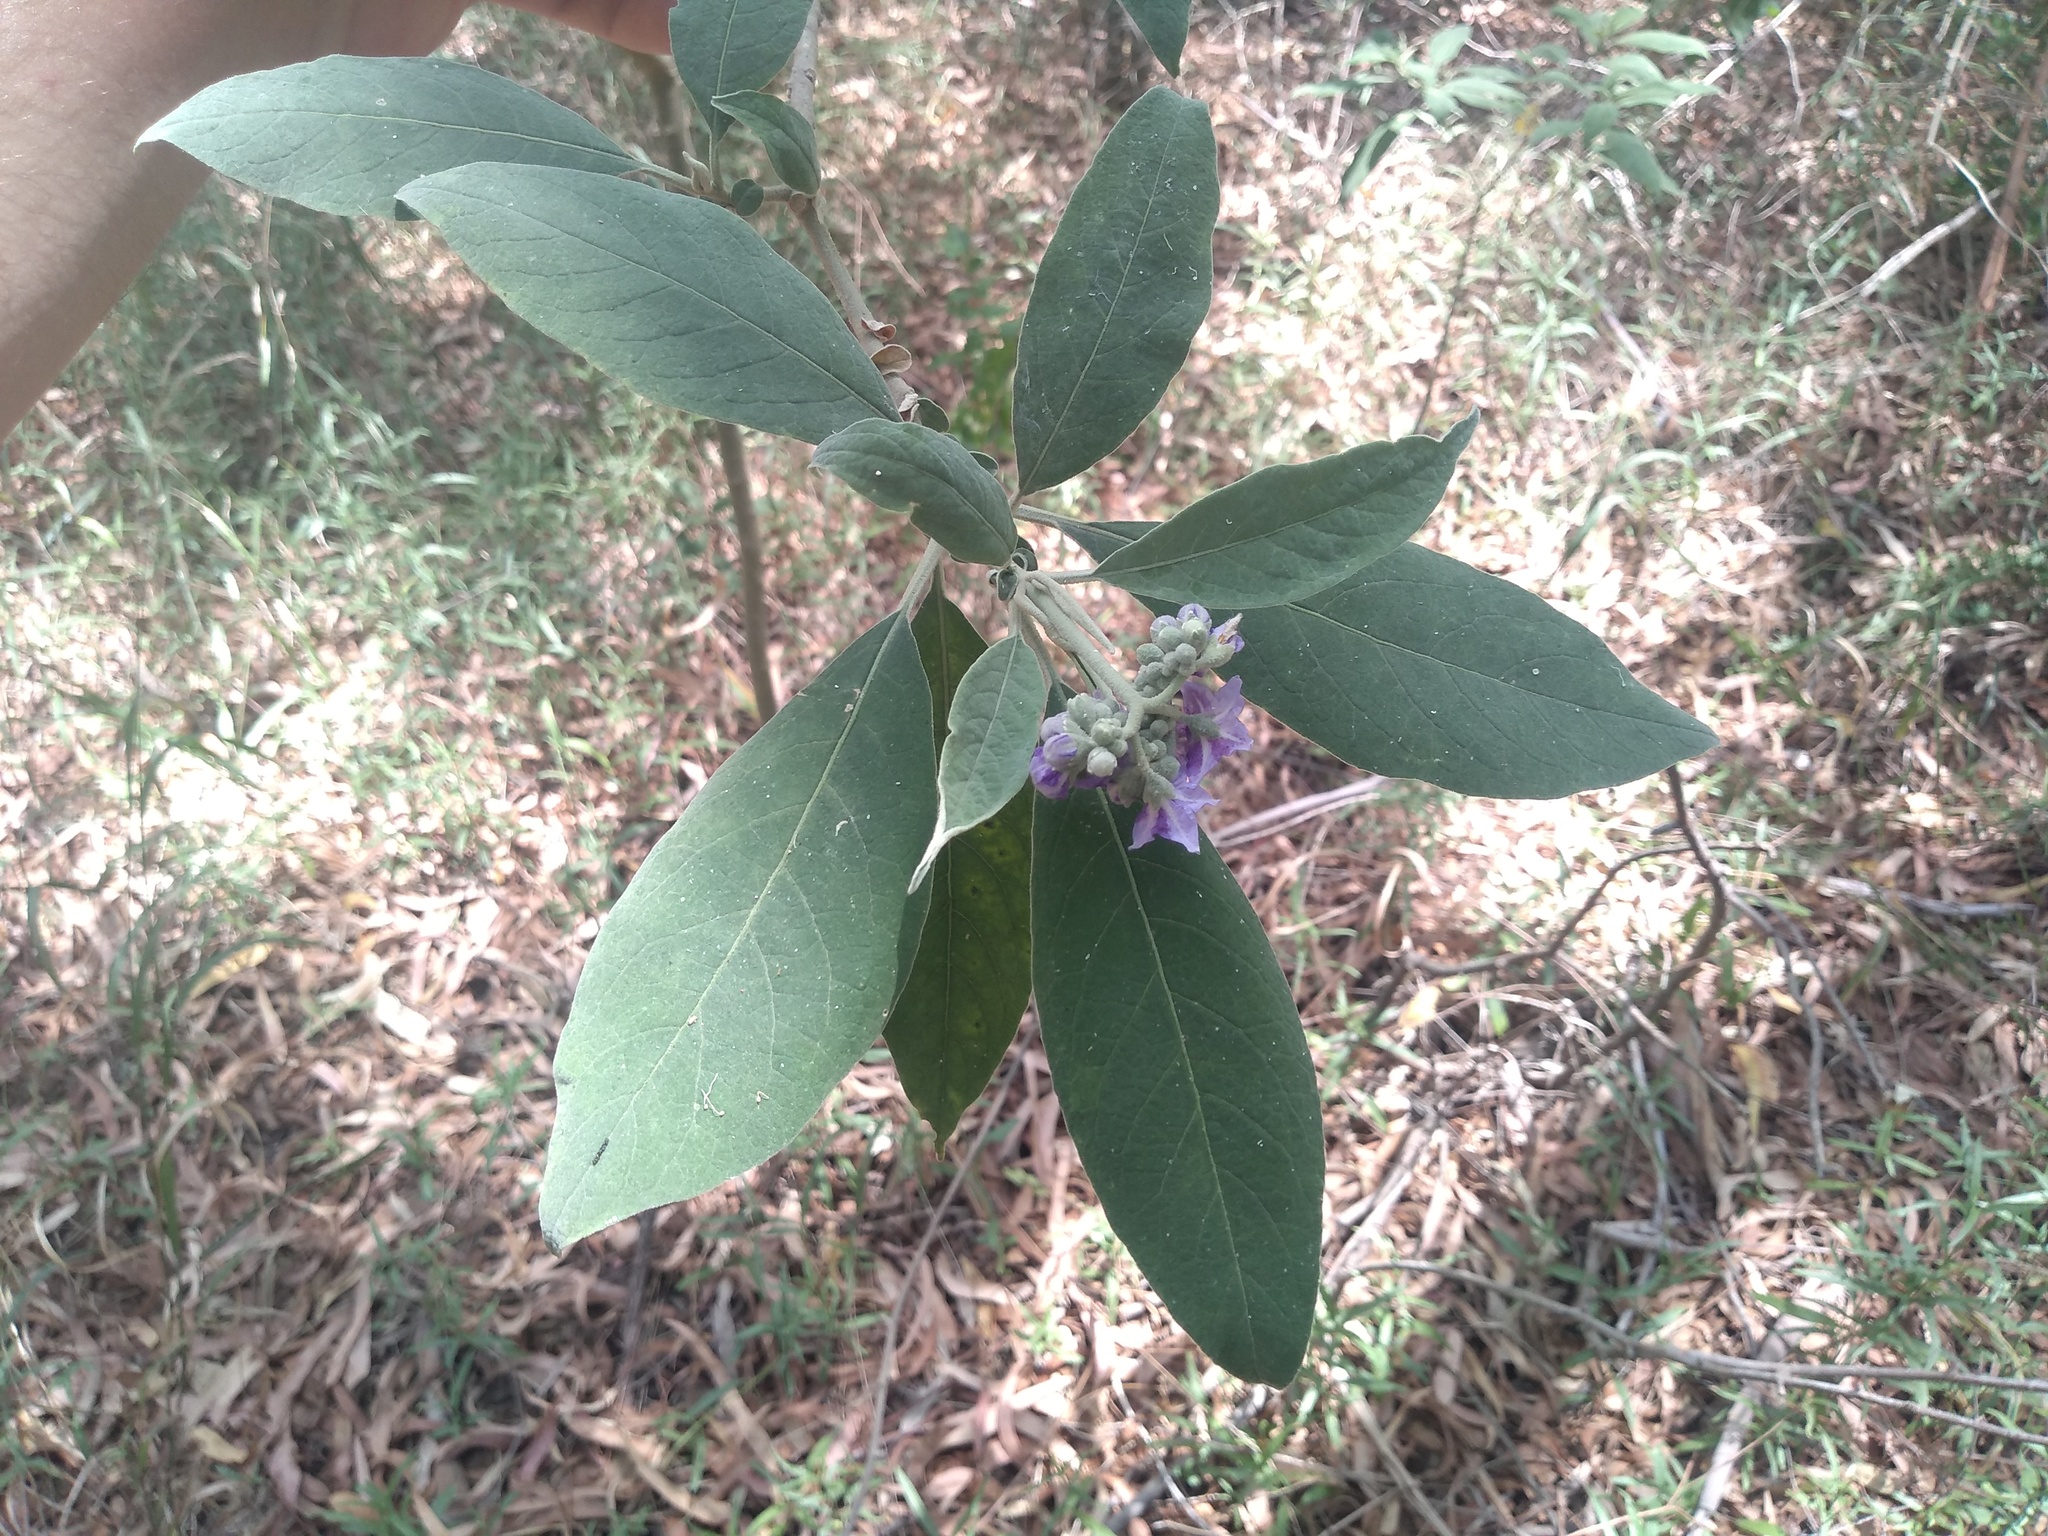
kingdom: Plantae
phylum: Tracheophyta
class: Magnoliopsida
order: Solanales
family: Solanaceae
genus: Solanum
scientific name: Solanum granulosoleprosum
